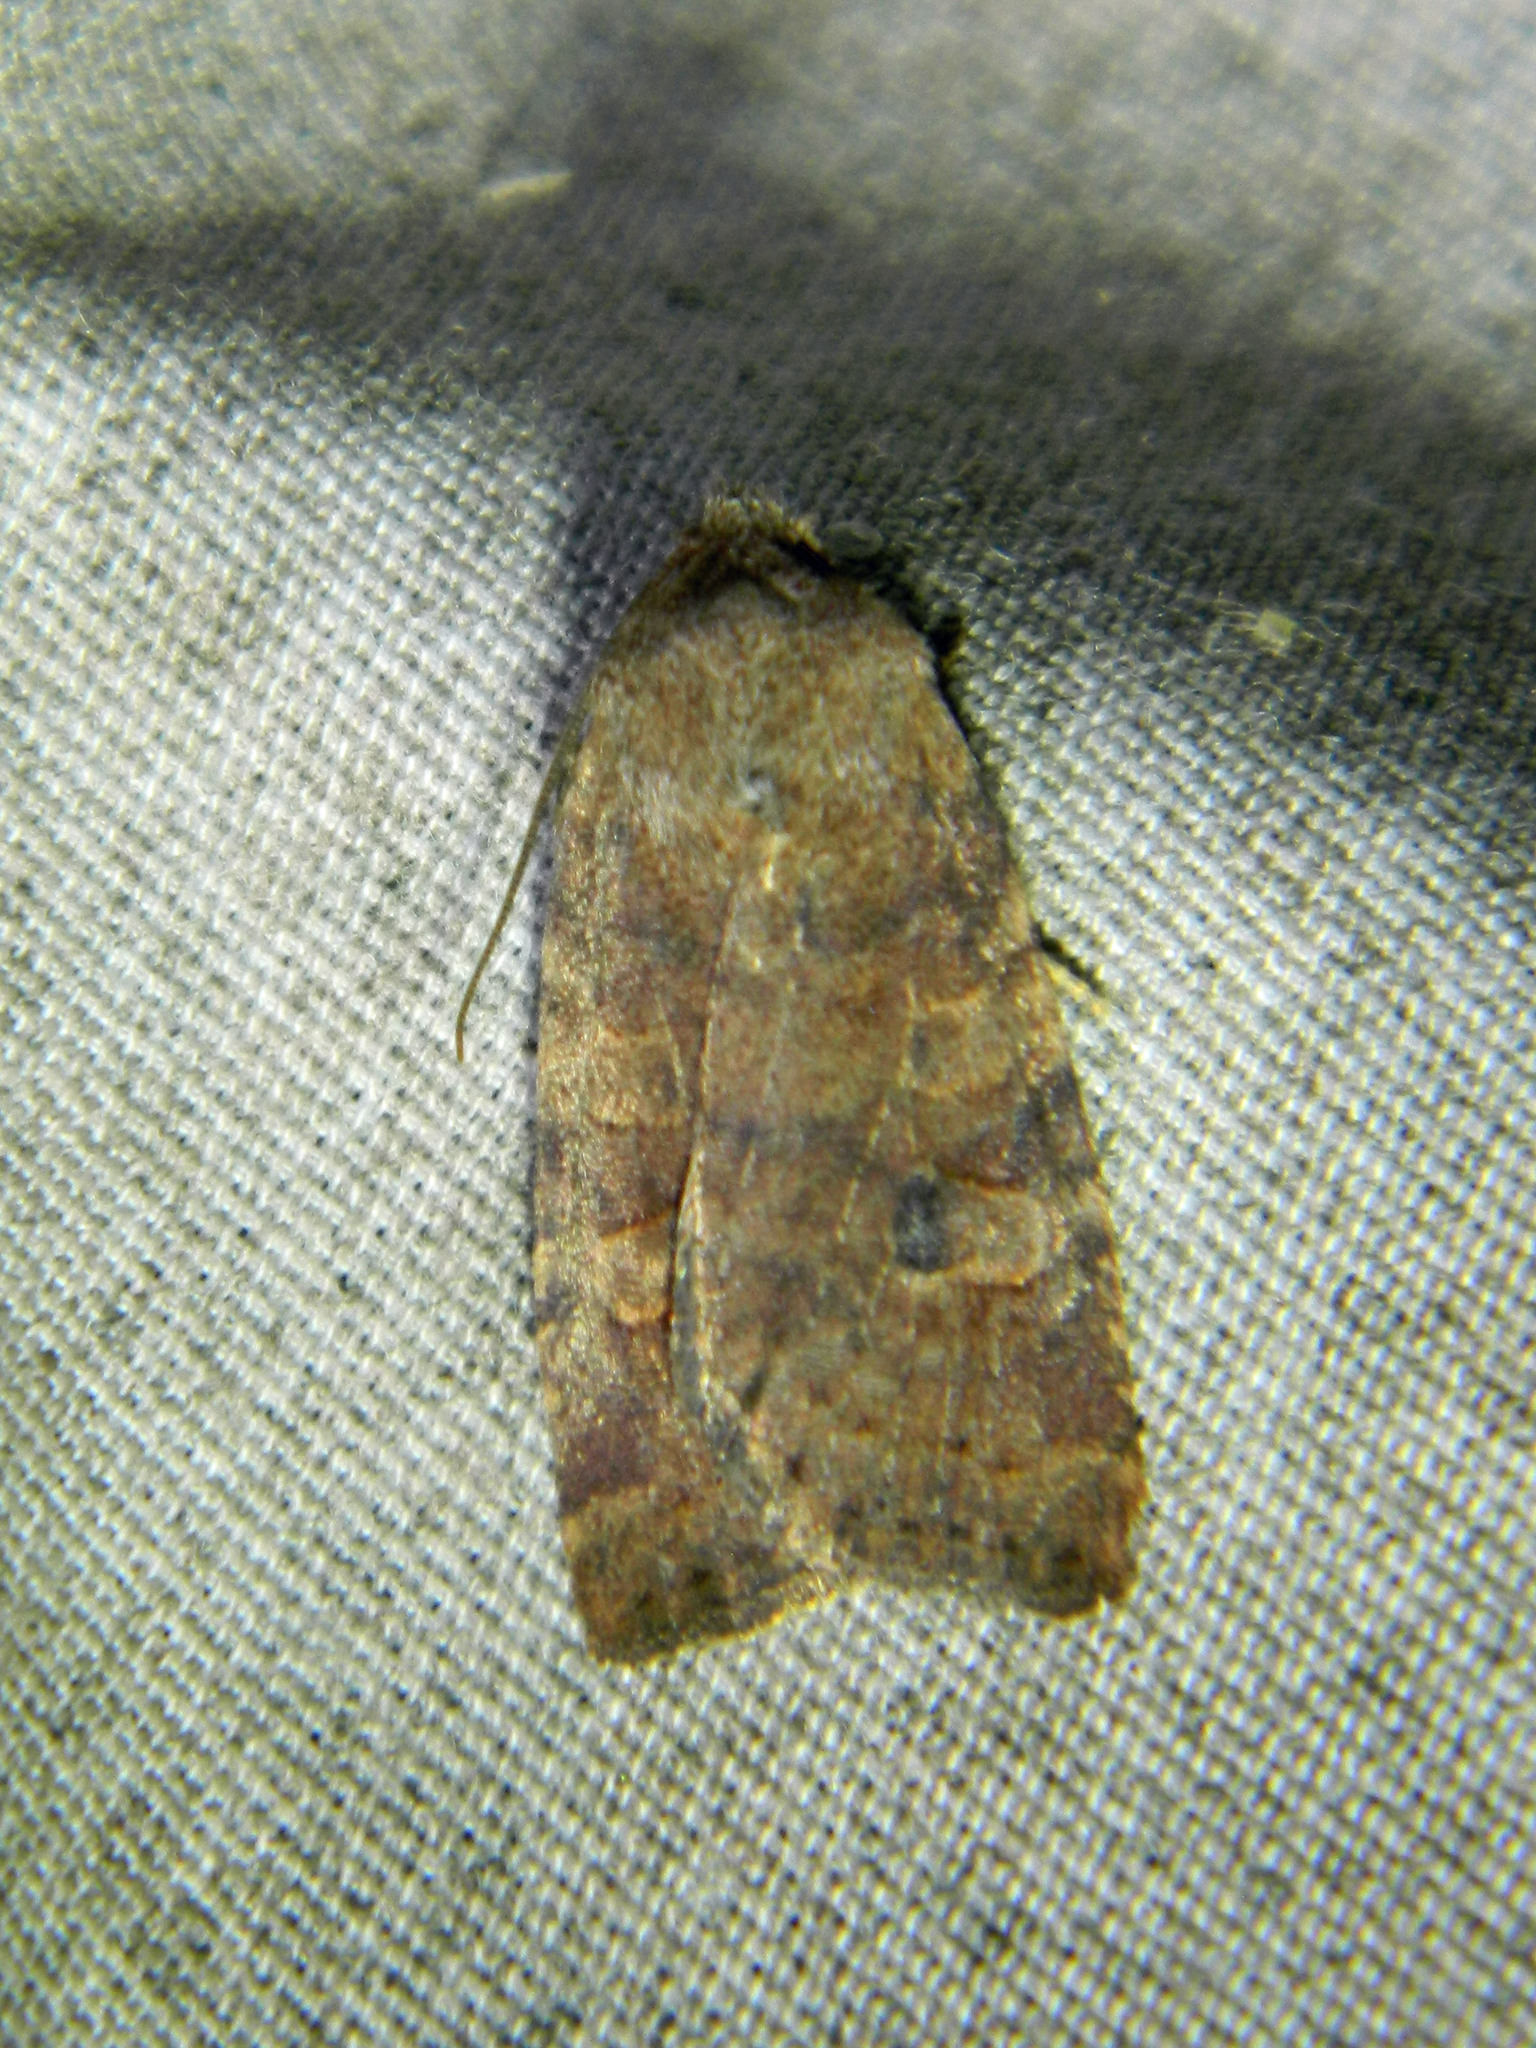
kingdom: Animalia
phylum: Arthropoda
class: Insecta
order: Lepidoptera
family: Noctuidae
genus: Xestia
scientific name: Xestia smithii
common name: Smith's dart
